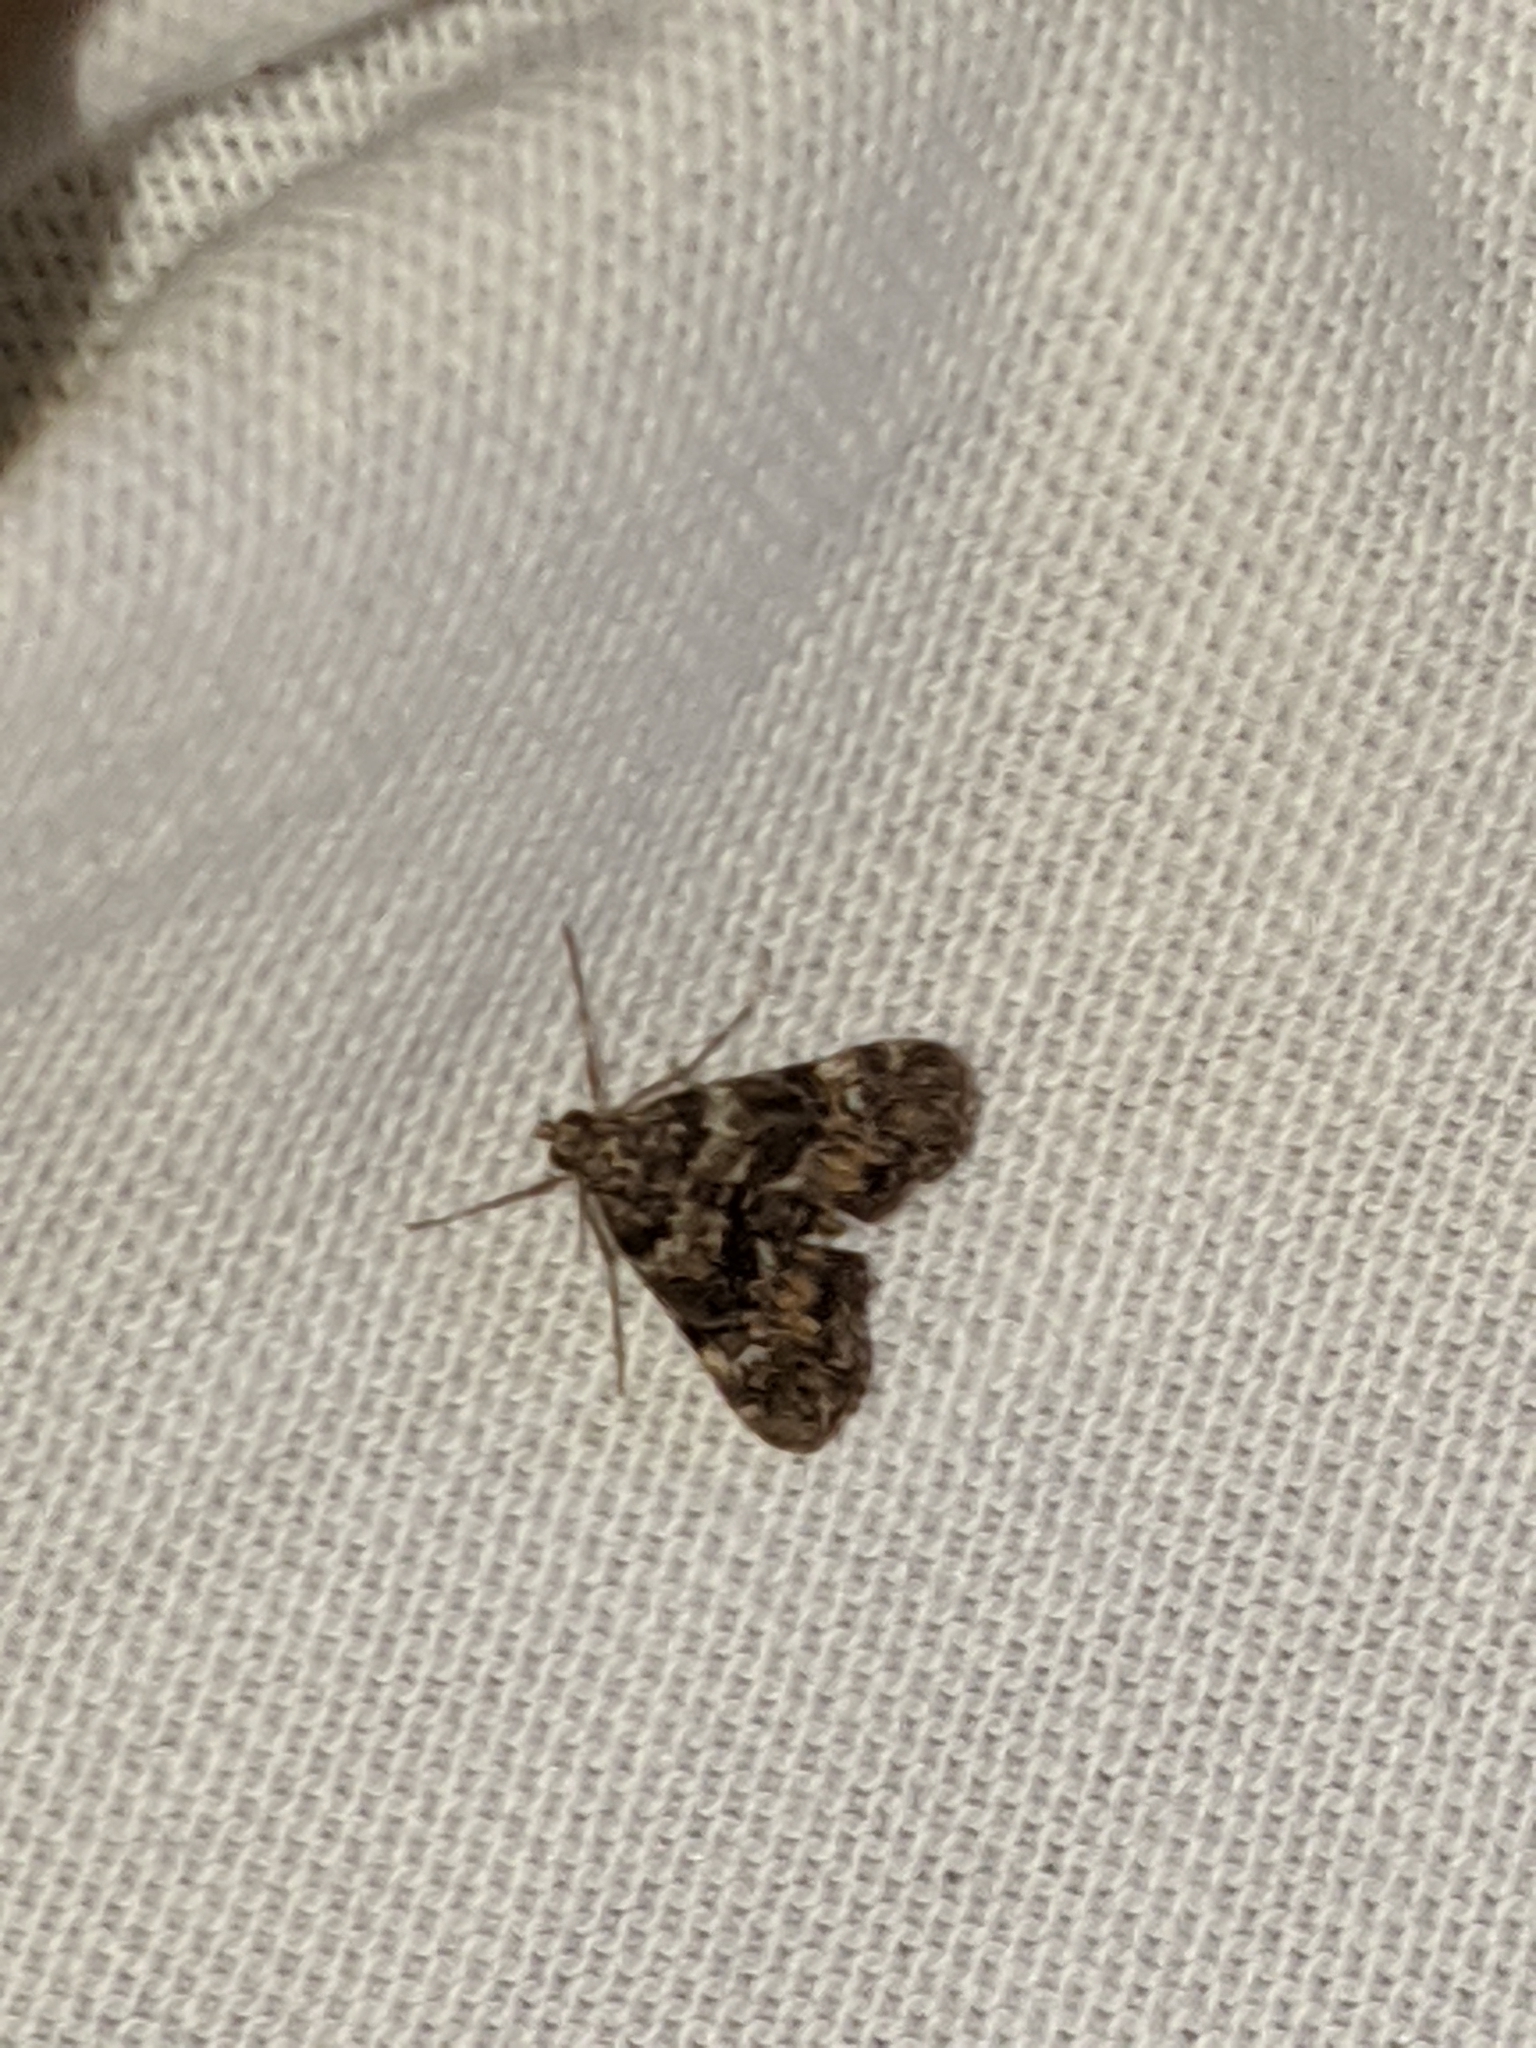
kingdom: Animalia
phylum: Arthropoda
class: Insecta
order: Lepidoptera
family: Crambidae
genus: Elophila
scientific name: Elophila obliteralis
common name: Waterlily leafcutter moth
